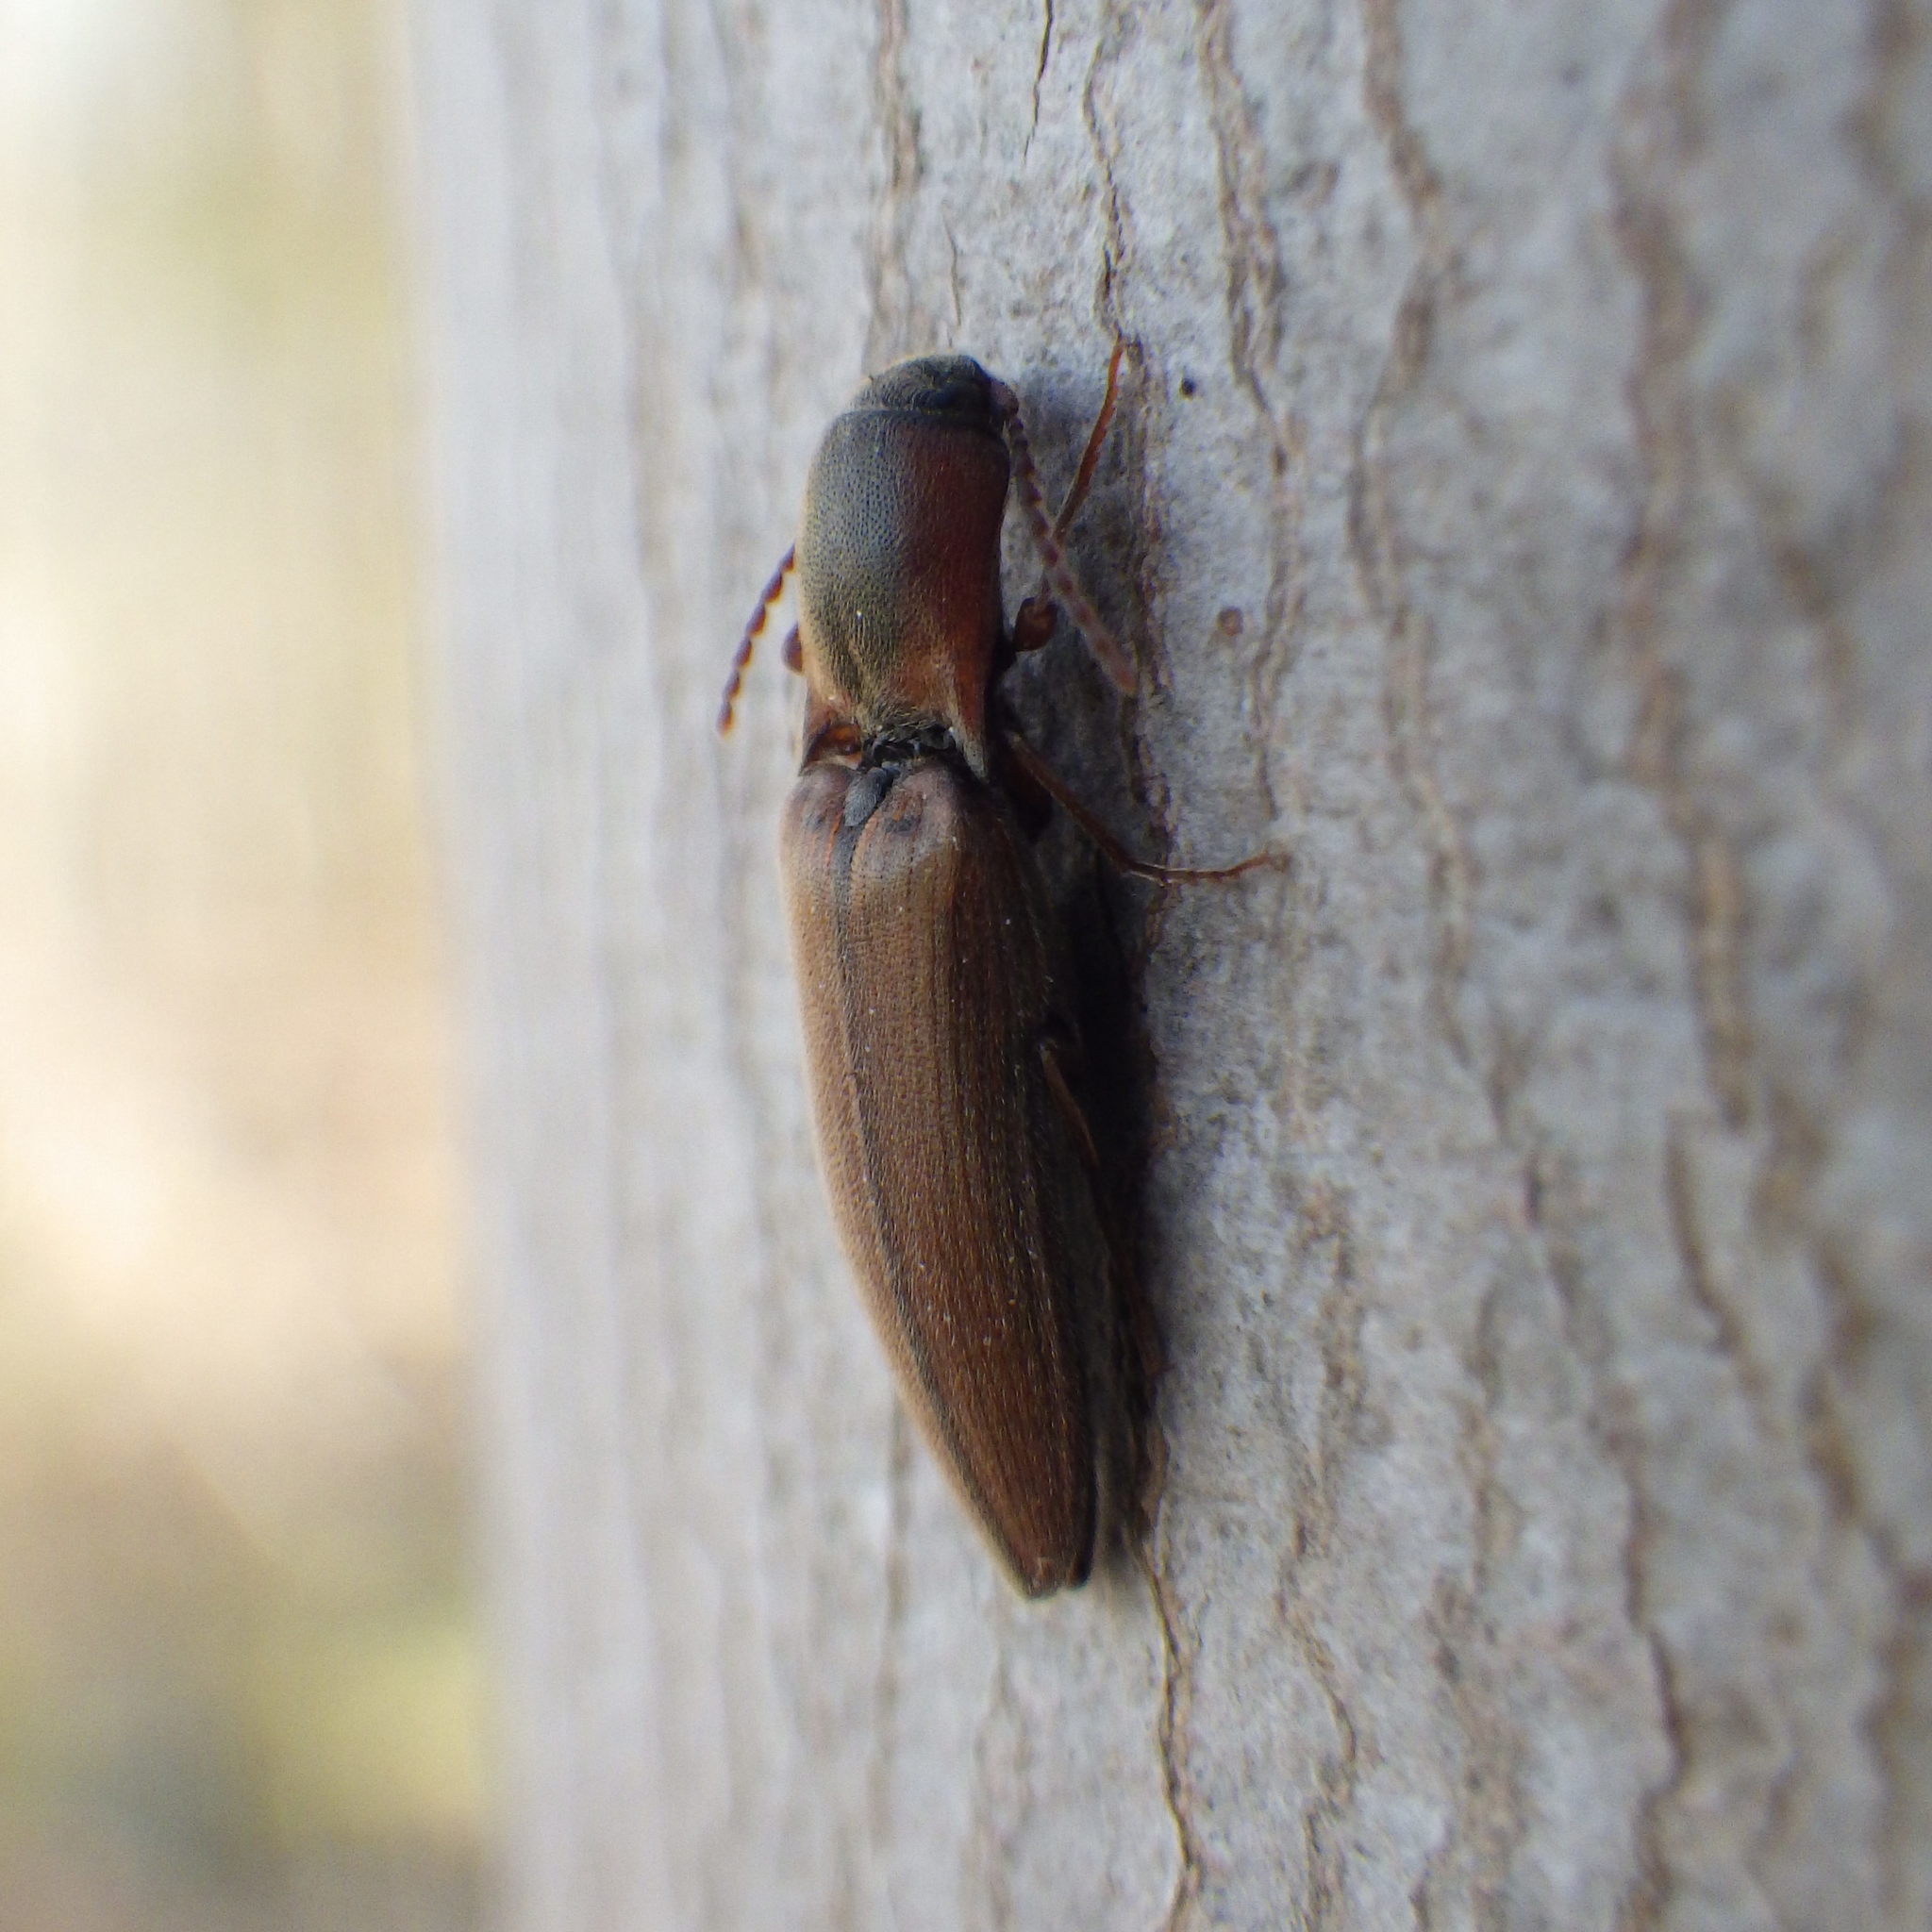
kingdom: Animalia
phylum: Arthropoda
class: Insecta
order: Coleoptera
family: Elateridae
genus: Agriotes
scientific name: Agriotes collaris
